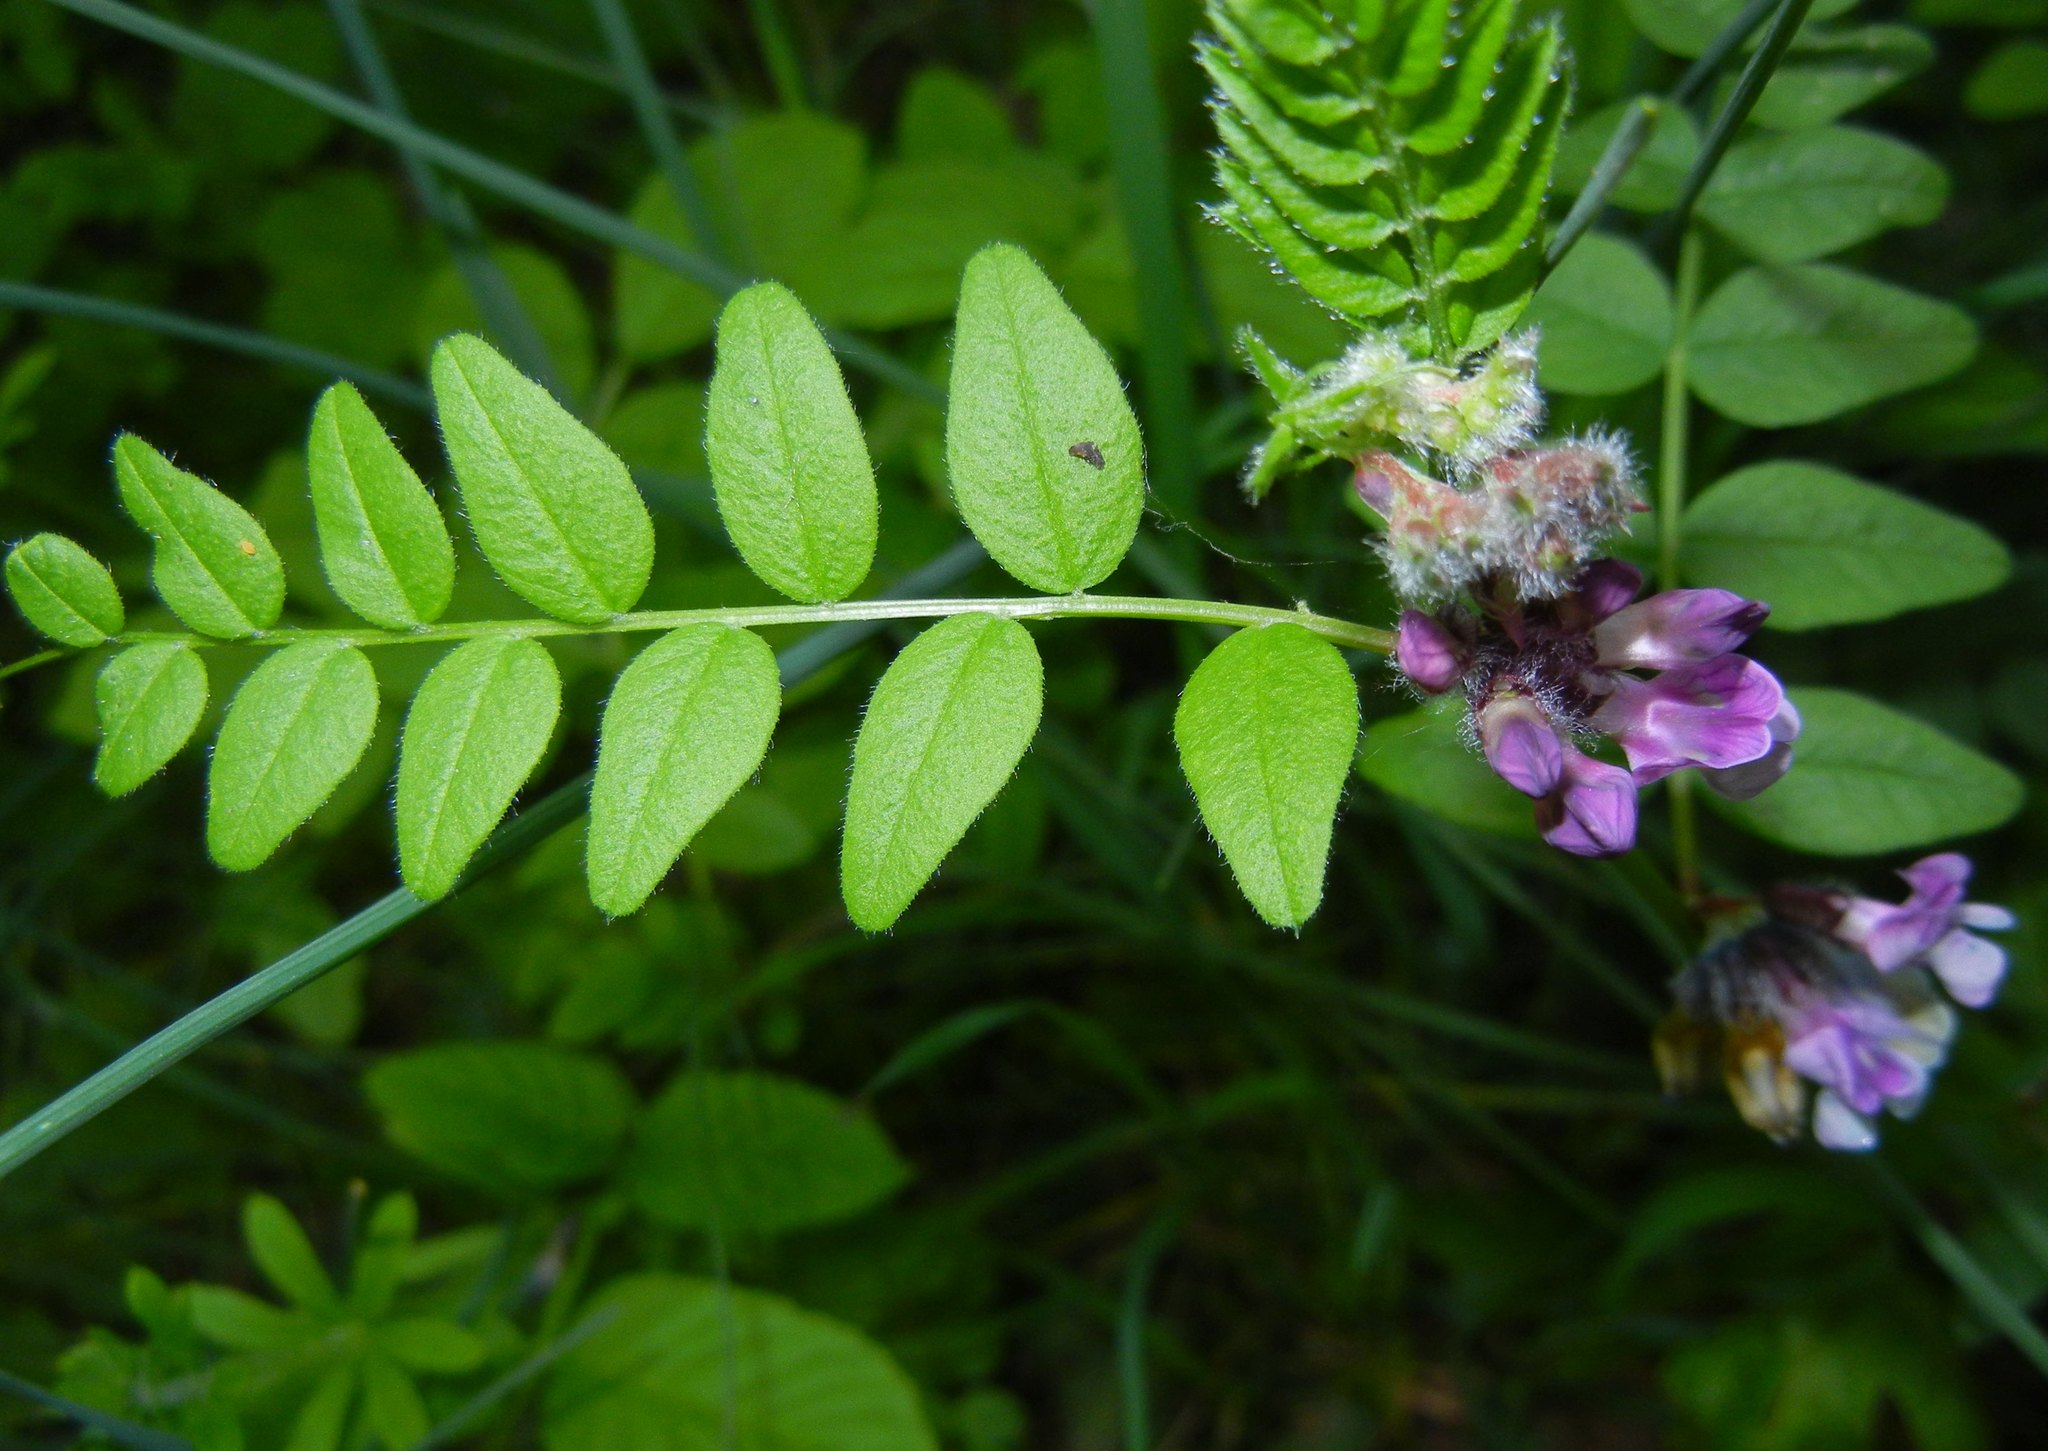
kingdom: Plantae
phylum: Tracheophyta
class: Magnoliopsida
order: Fabales
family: Fabaceae
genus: Vicia
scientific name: Vicia sepium
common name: Bush vetch
